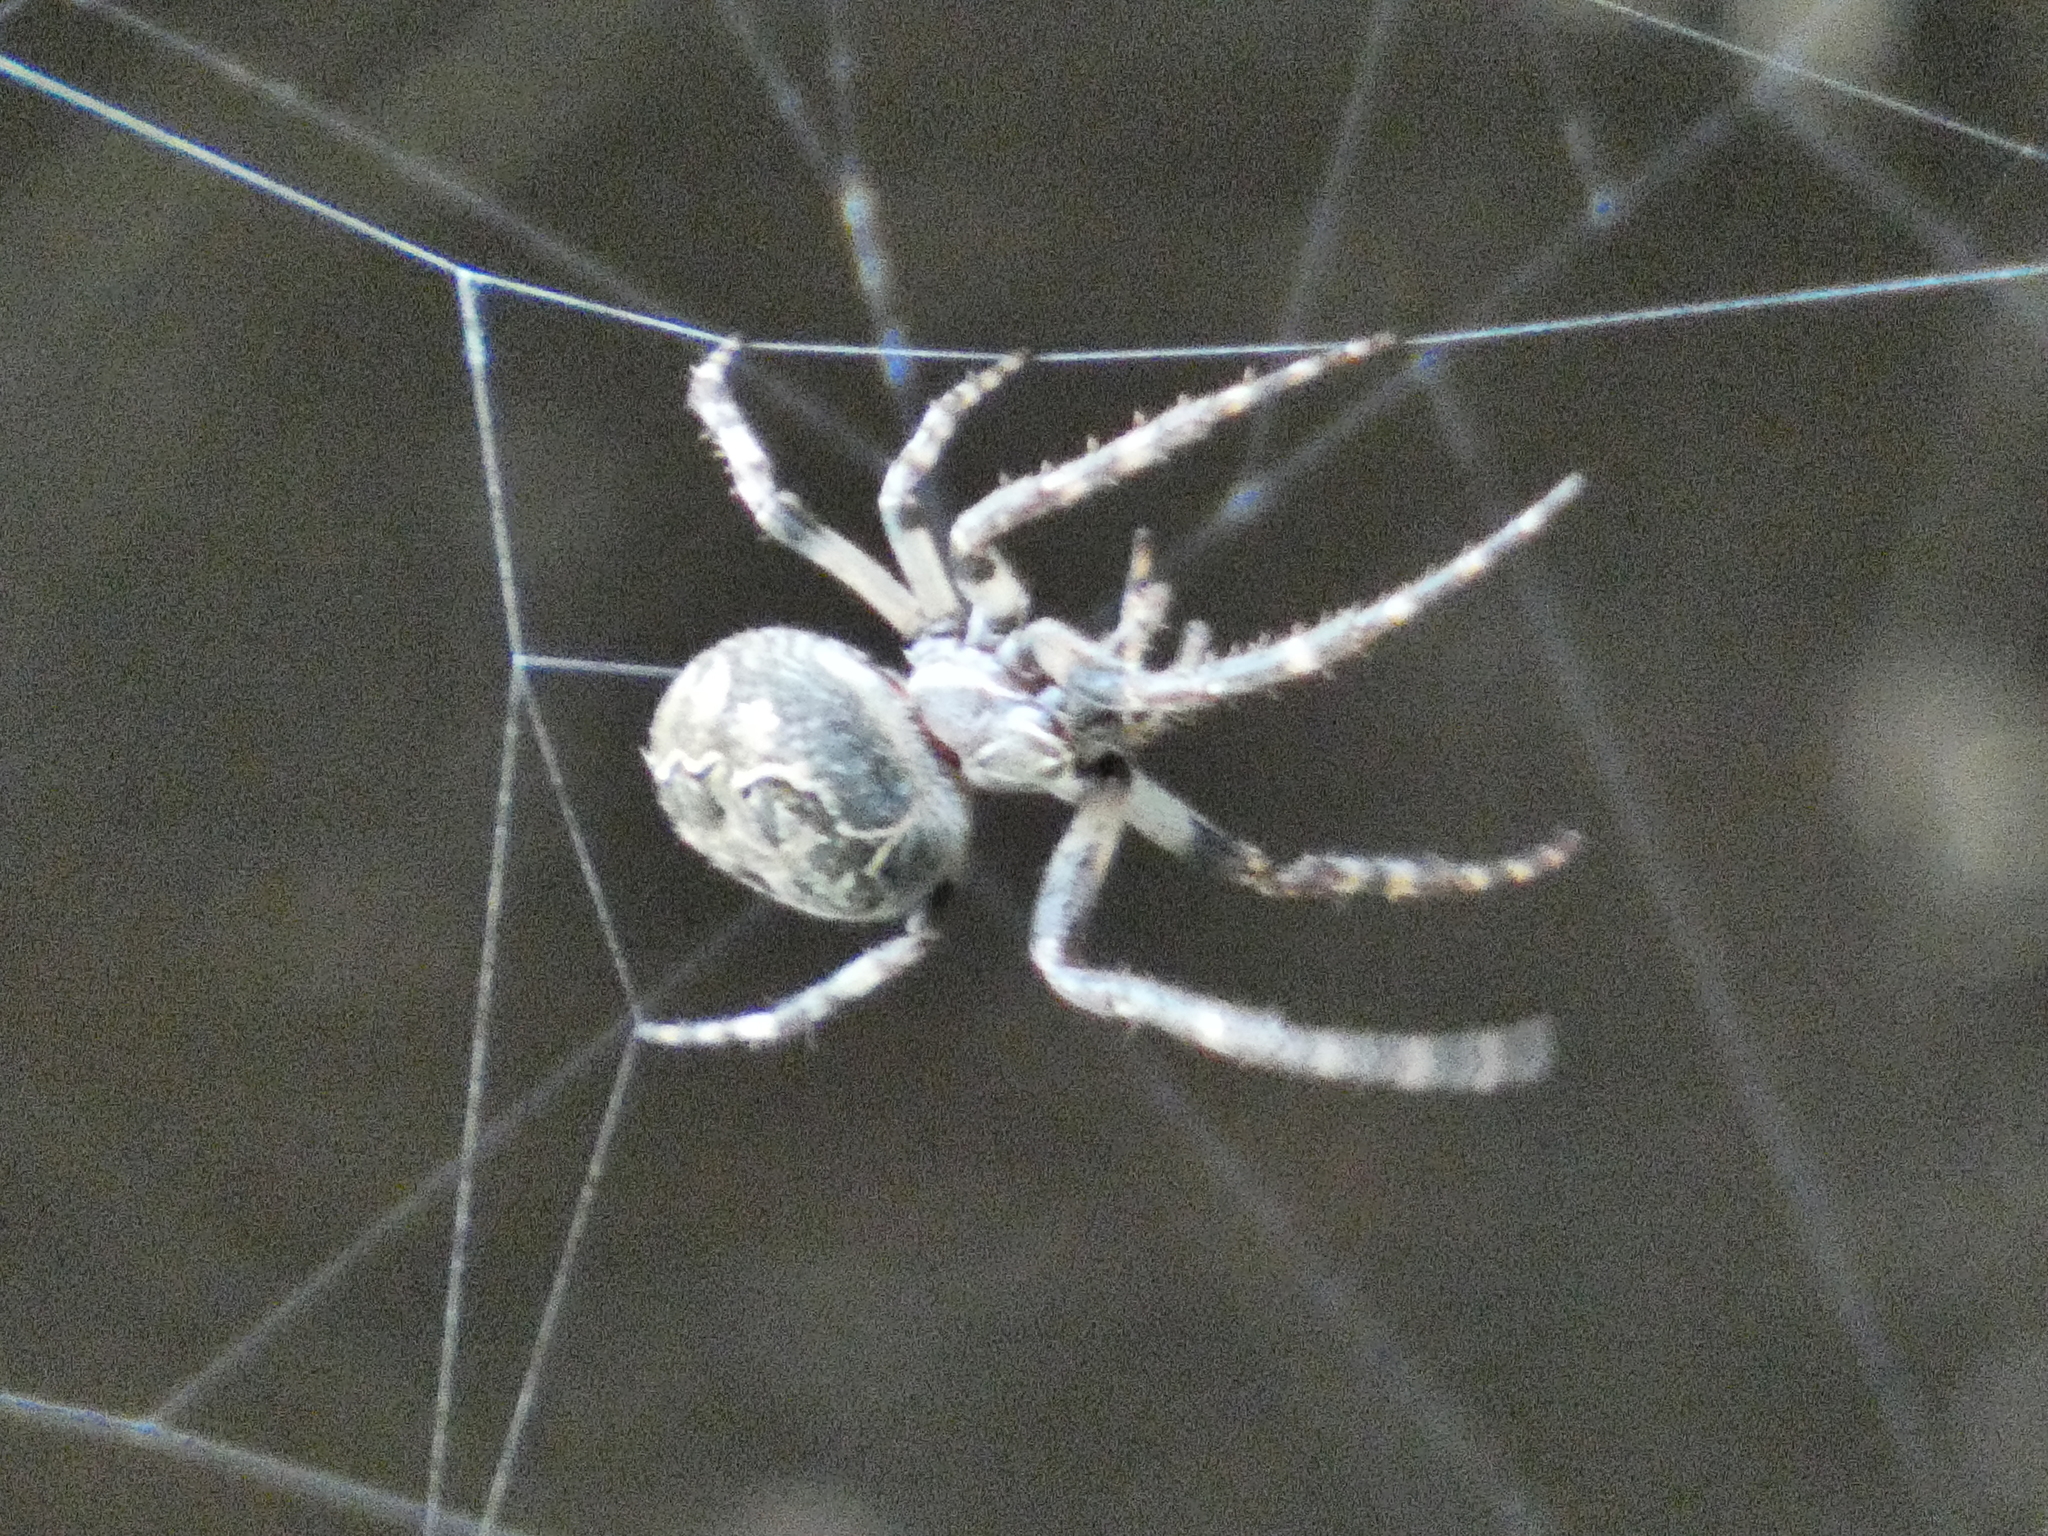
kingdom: Animalia
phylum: Arthropoda
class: Arachnida
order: Araneae
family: Araneidae
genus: Larinioides
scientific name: Larinioides sclopetarius
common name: Bridge orbweaver
